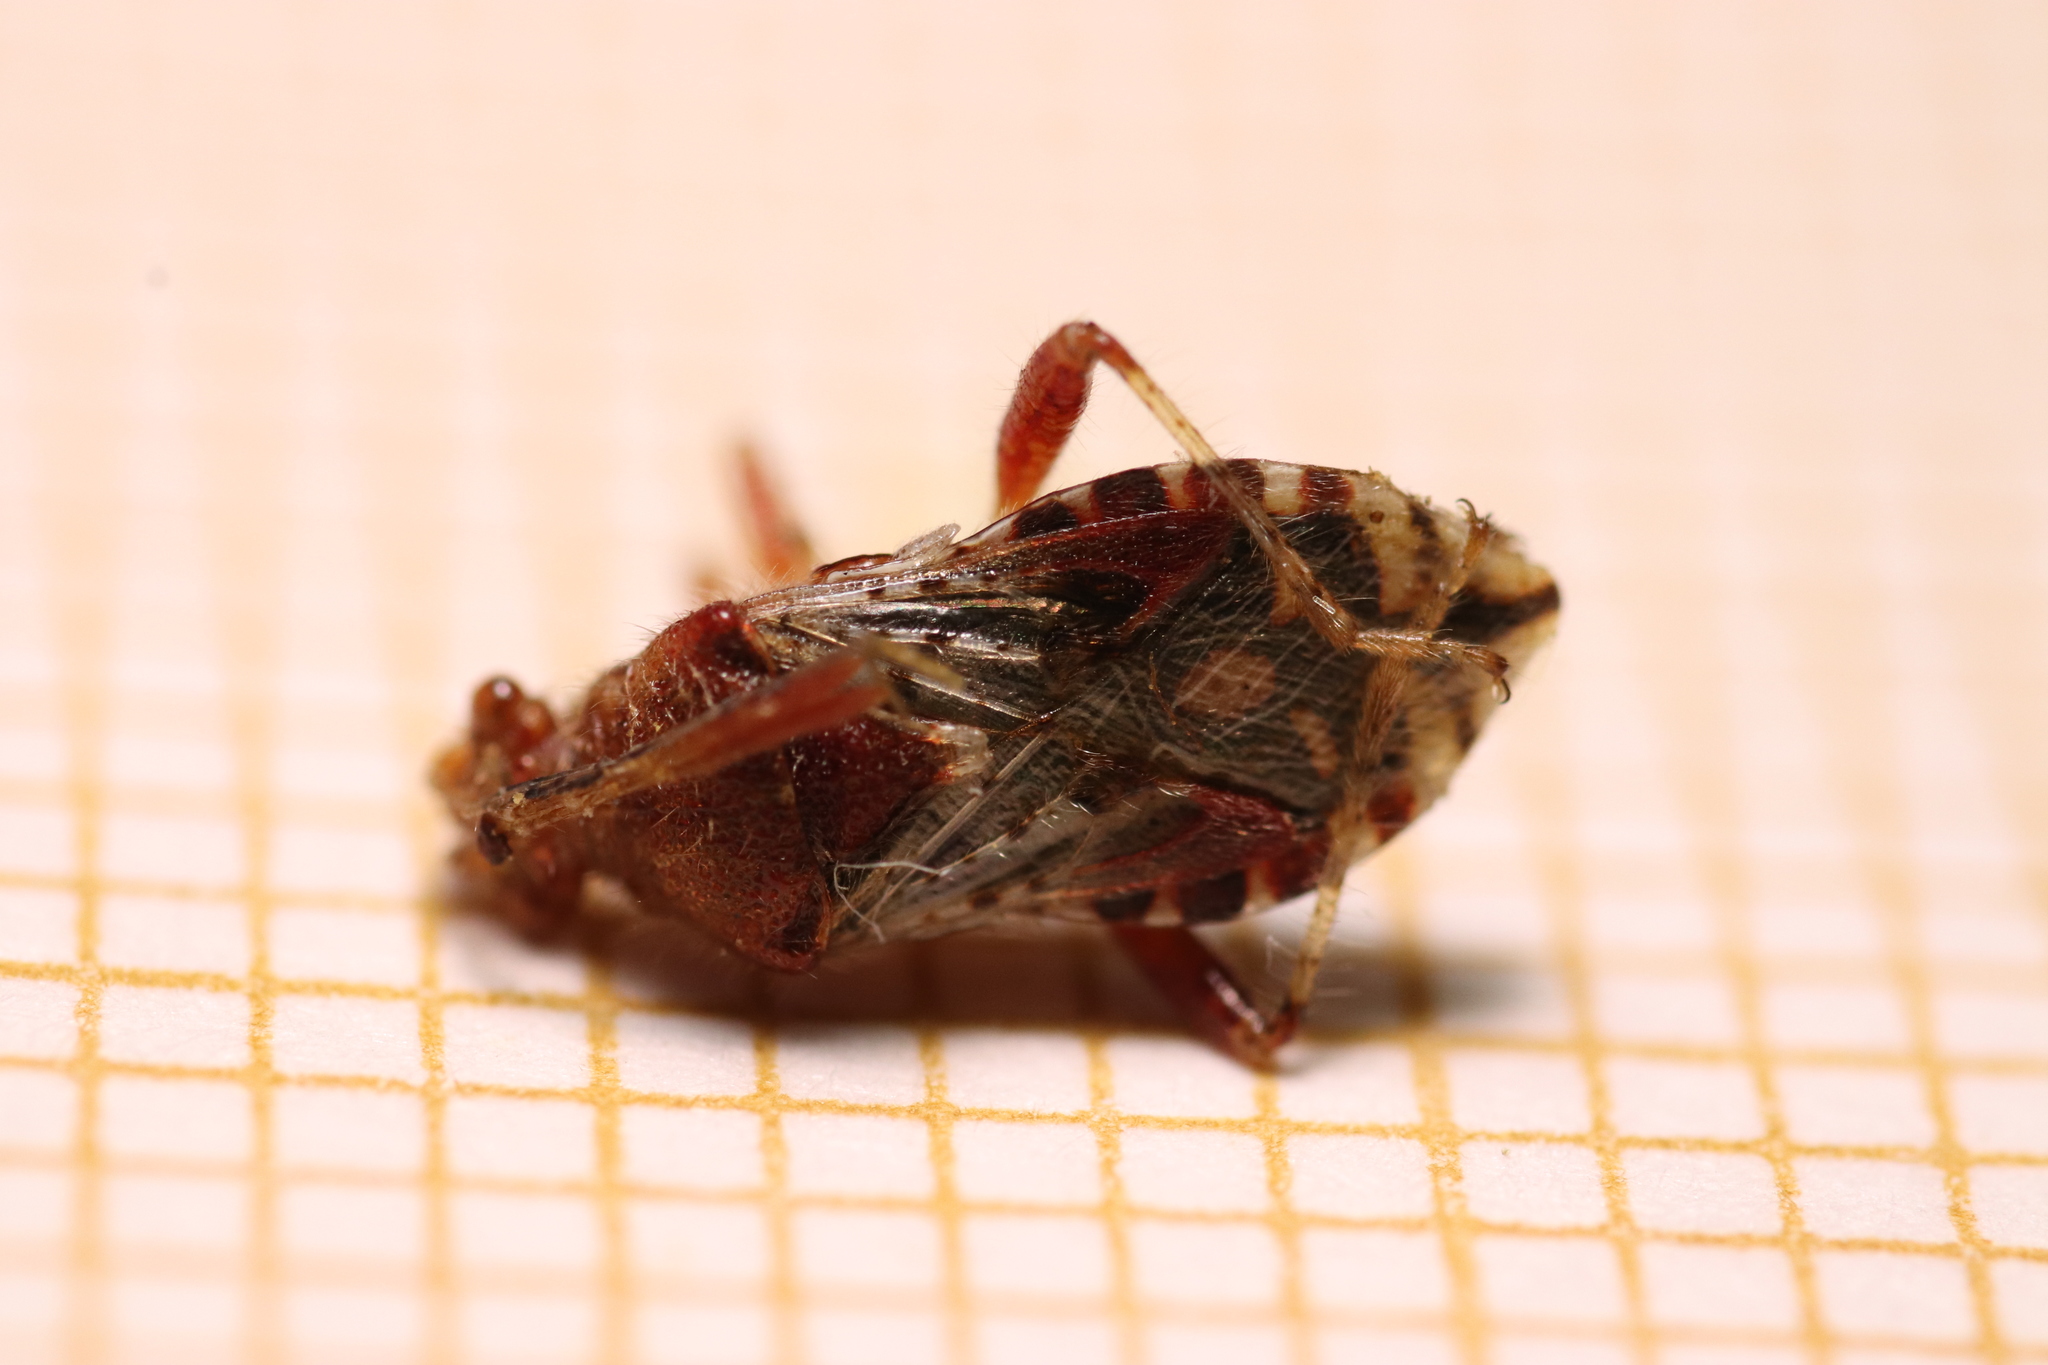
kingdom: Animalia
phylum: Arthropoda
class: Insecta
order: Hemiptera
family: Rhopalidae
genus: Rhopalus
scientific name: Rhopalus subrufus
